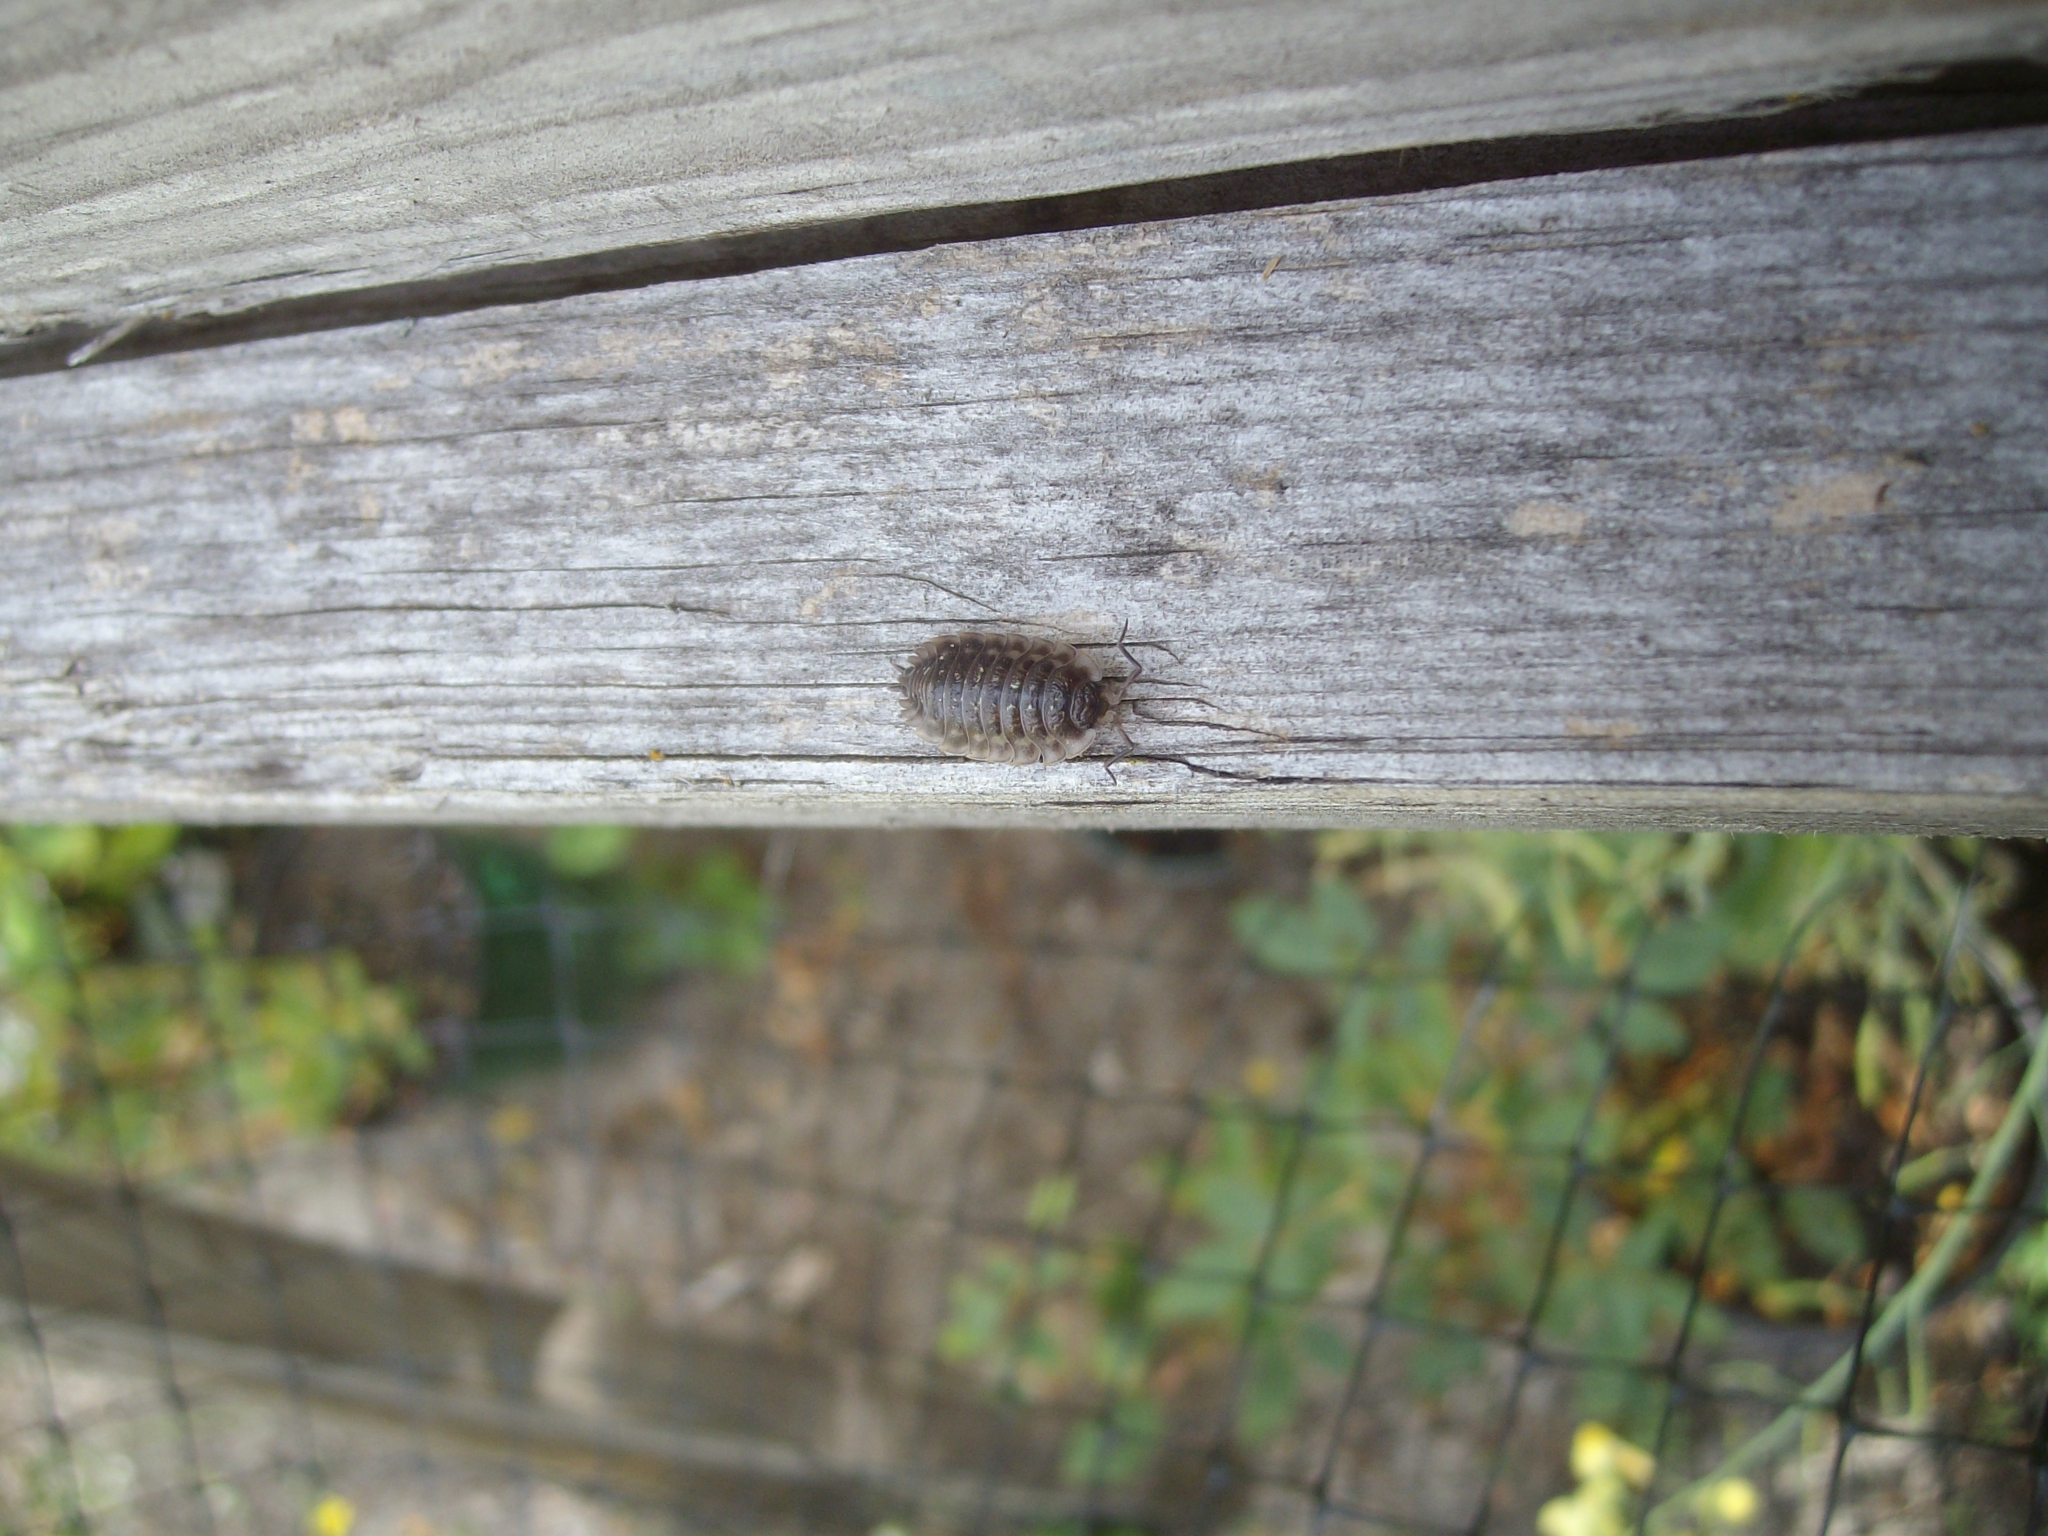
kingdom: Animalia
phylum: Arthropoda
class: Malacostraca
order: Isopoda
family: Oniscidae
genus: Oniscus
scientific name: Oniscus asellus
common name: Common shiny woodlouse
